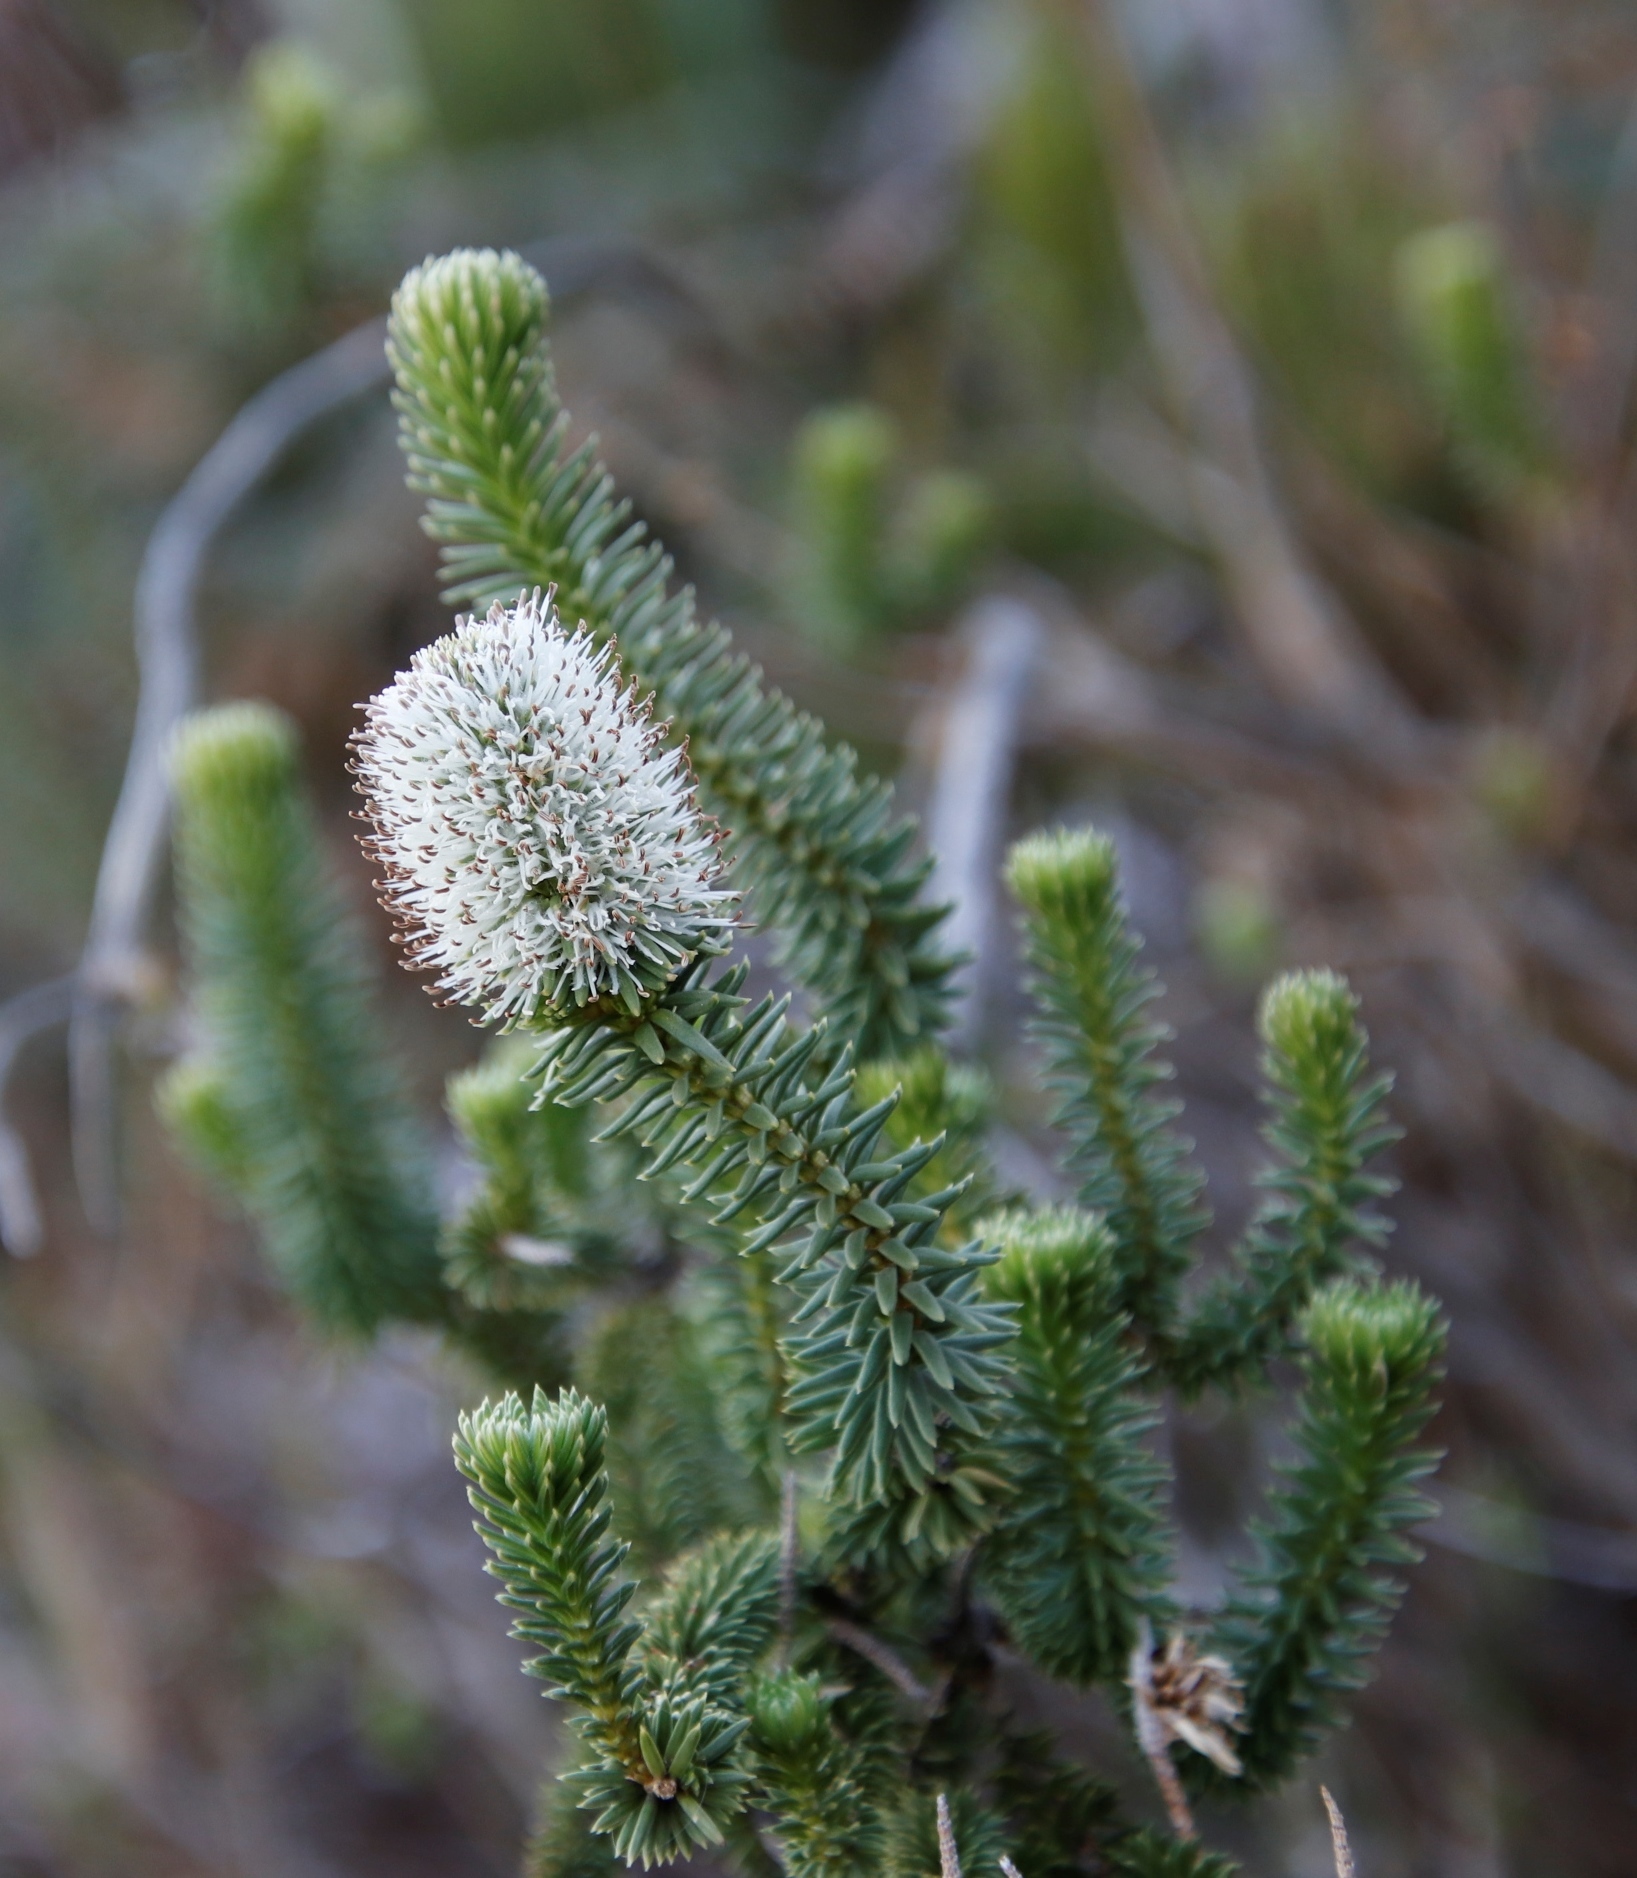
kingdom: Plantae
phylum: Tracheophyta
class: Magnoliopsida
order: Lamiales
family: Stilbaceae
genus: Stilbe
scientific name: Stilbe vestita
